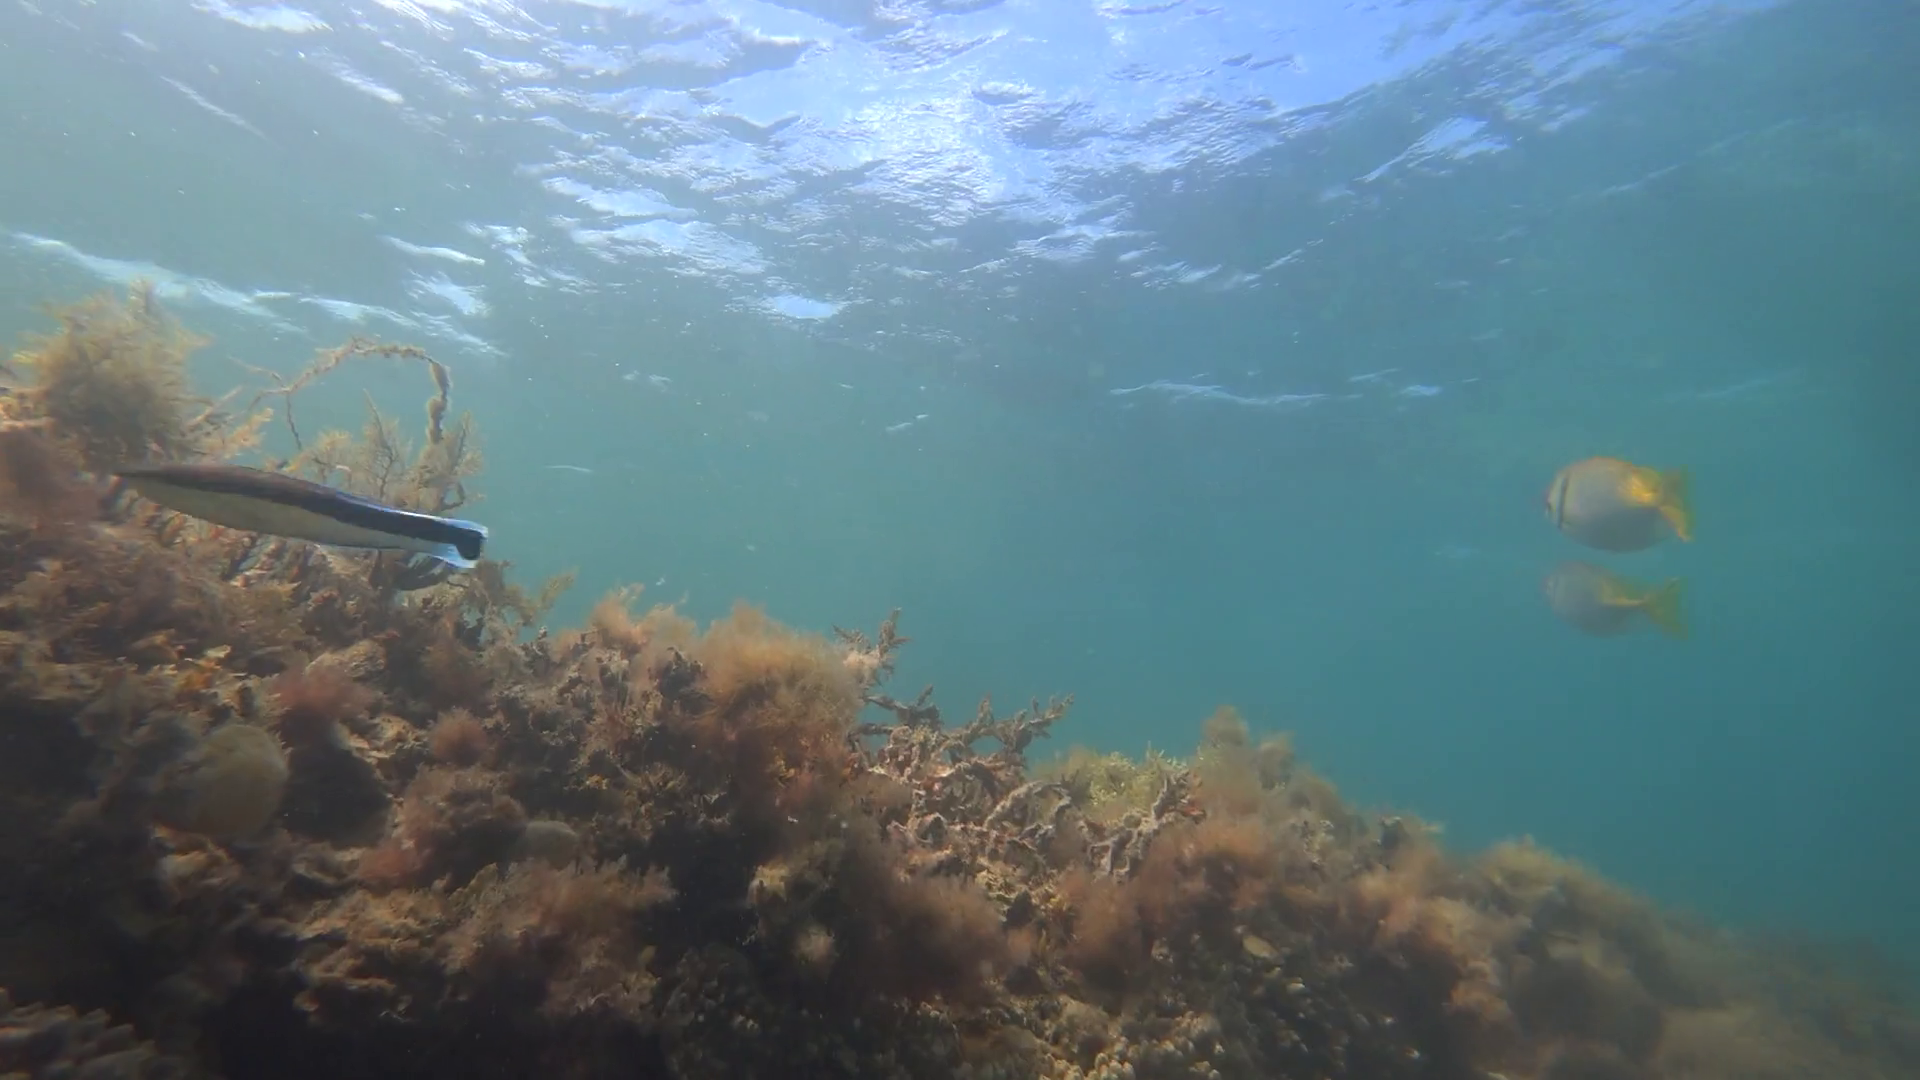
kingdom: Animalia
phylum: Chordata
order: Perciformes
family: Labridae
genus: Labroides
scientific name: Labroides dimidiatus
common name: Blue diesel wrasse
